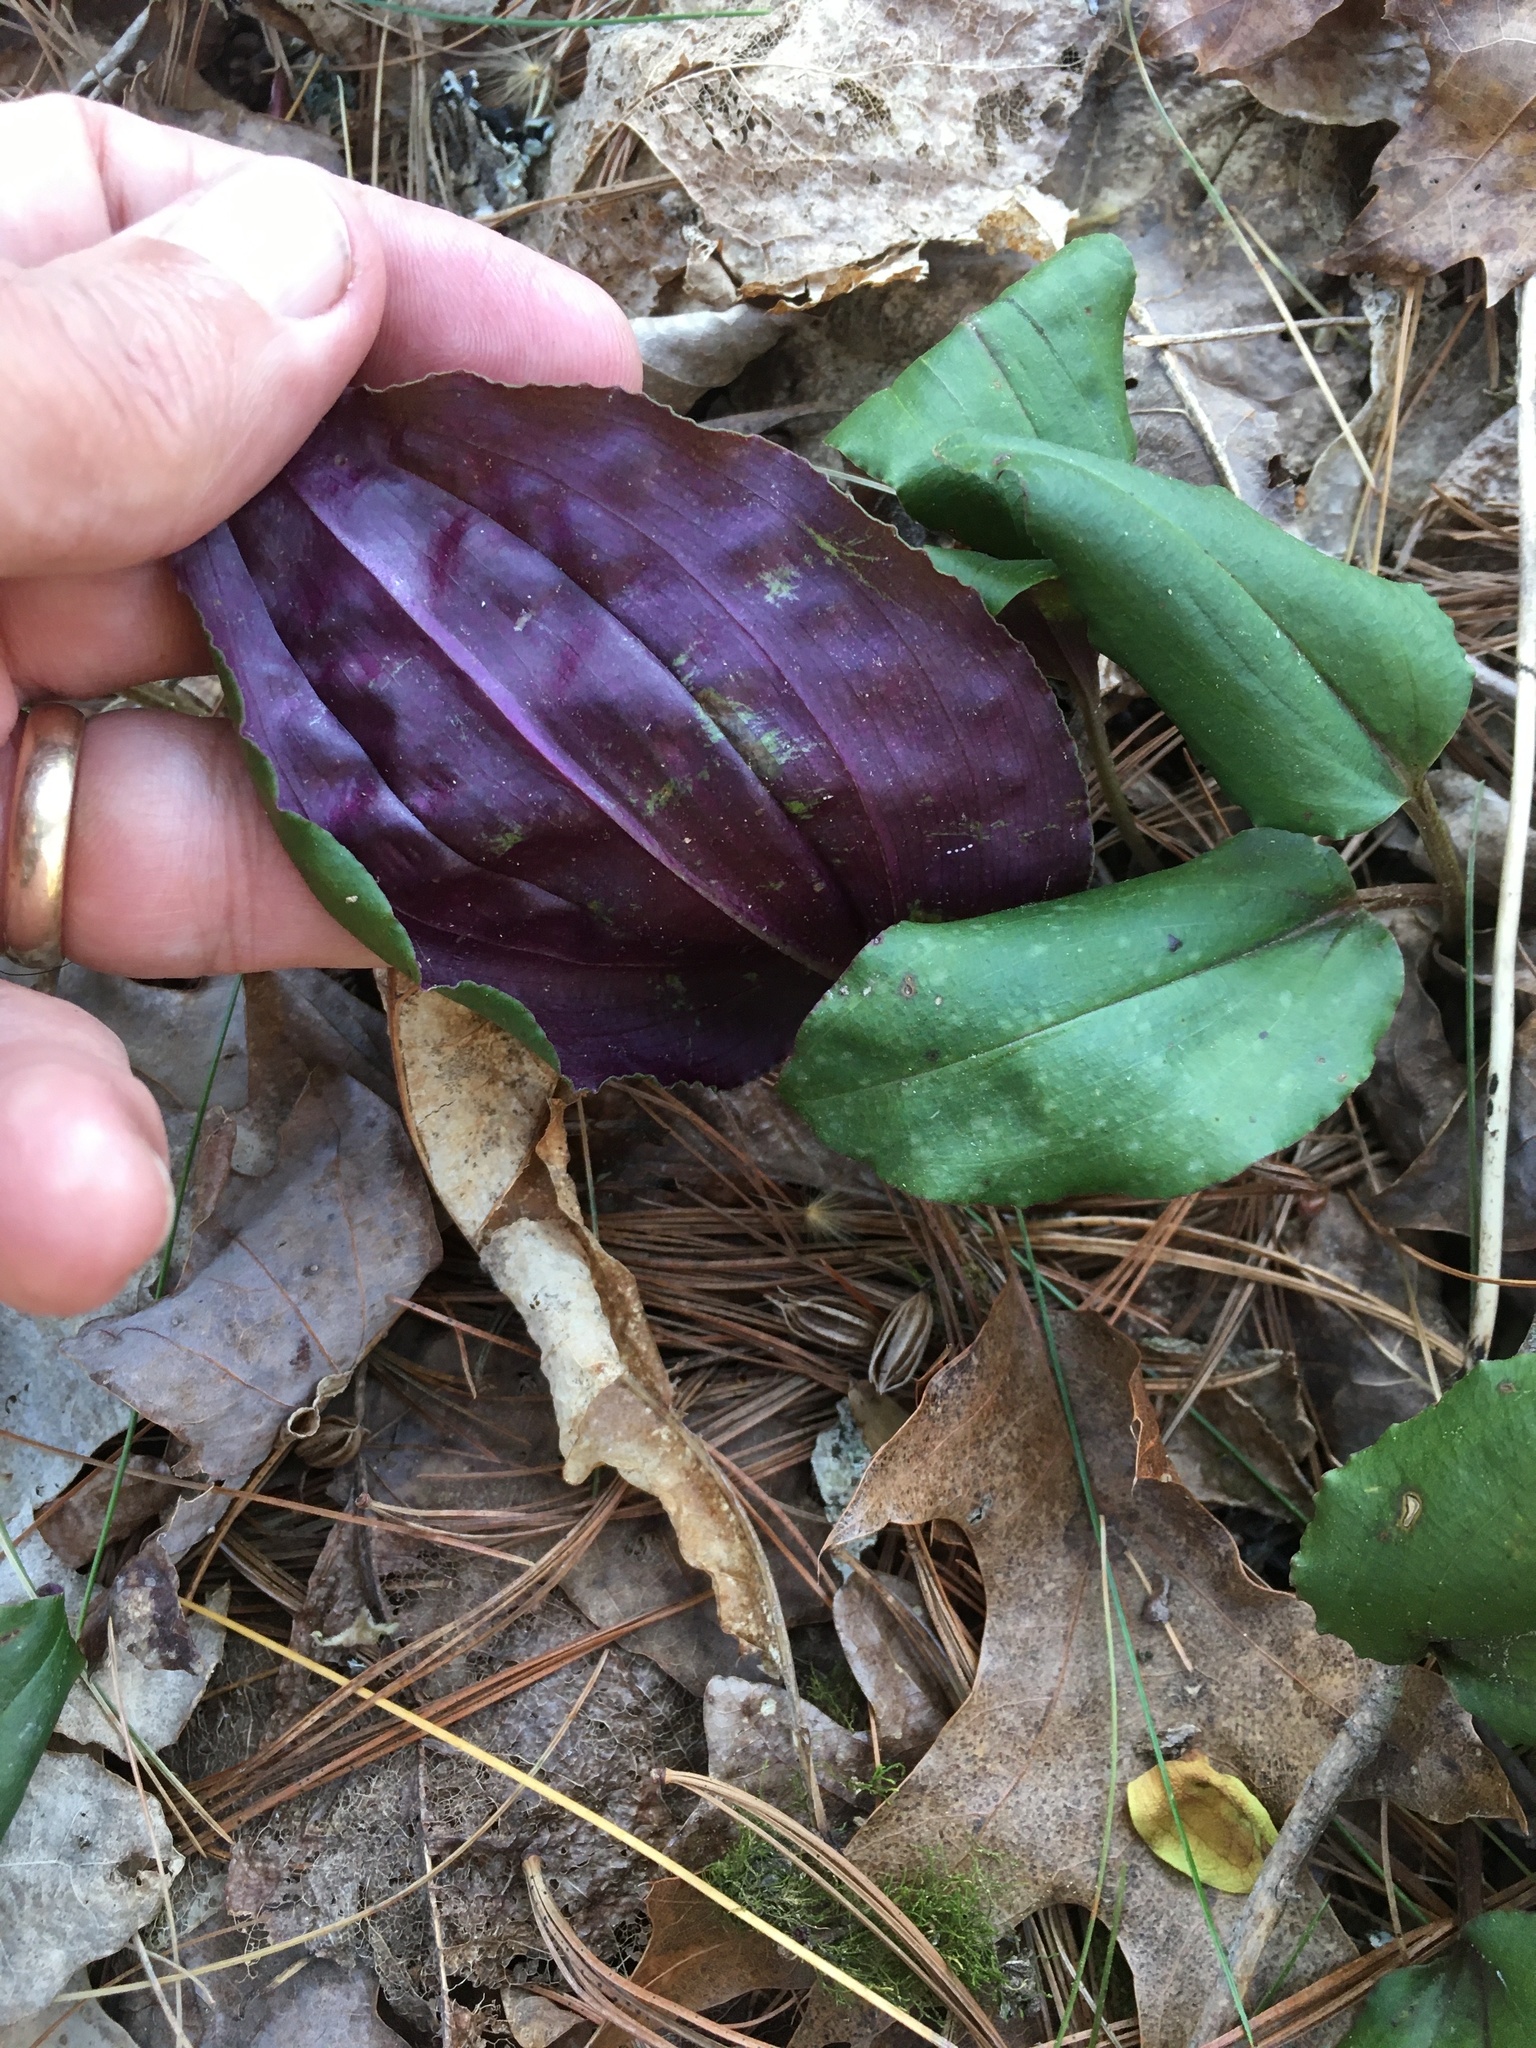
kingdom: Plantae
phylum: Tracheophyta
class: Liliopsida
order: Asparagales
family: Orchidaceae
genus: Tipularia
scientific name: Tipularia discolor
